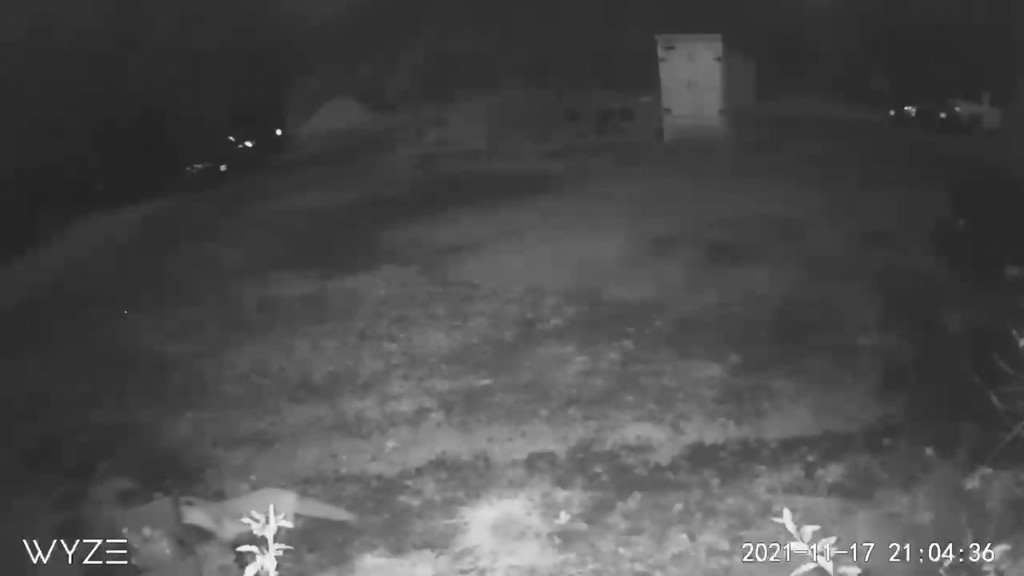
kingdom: Animalia
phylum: Chordata
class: Mammalia
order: Carnivora
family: Canidae
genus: Urocyon
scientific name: Urocyon cinereoargenteus
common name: Gray fox
